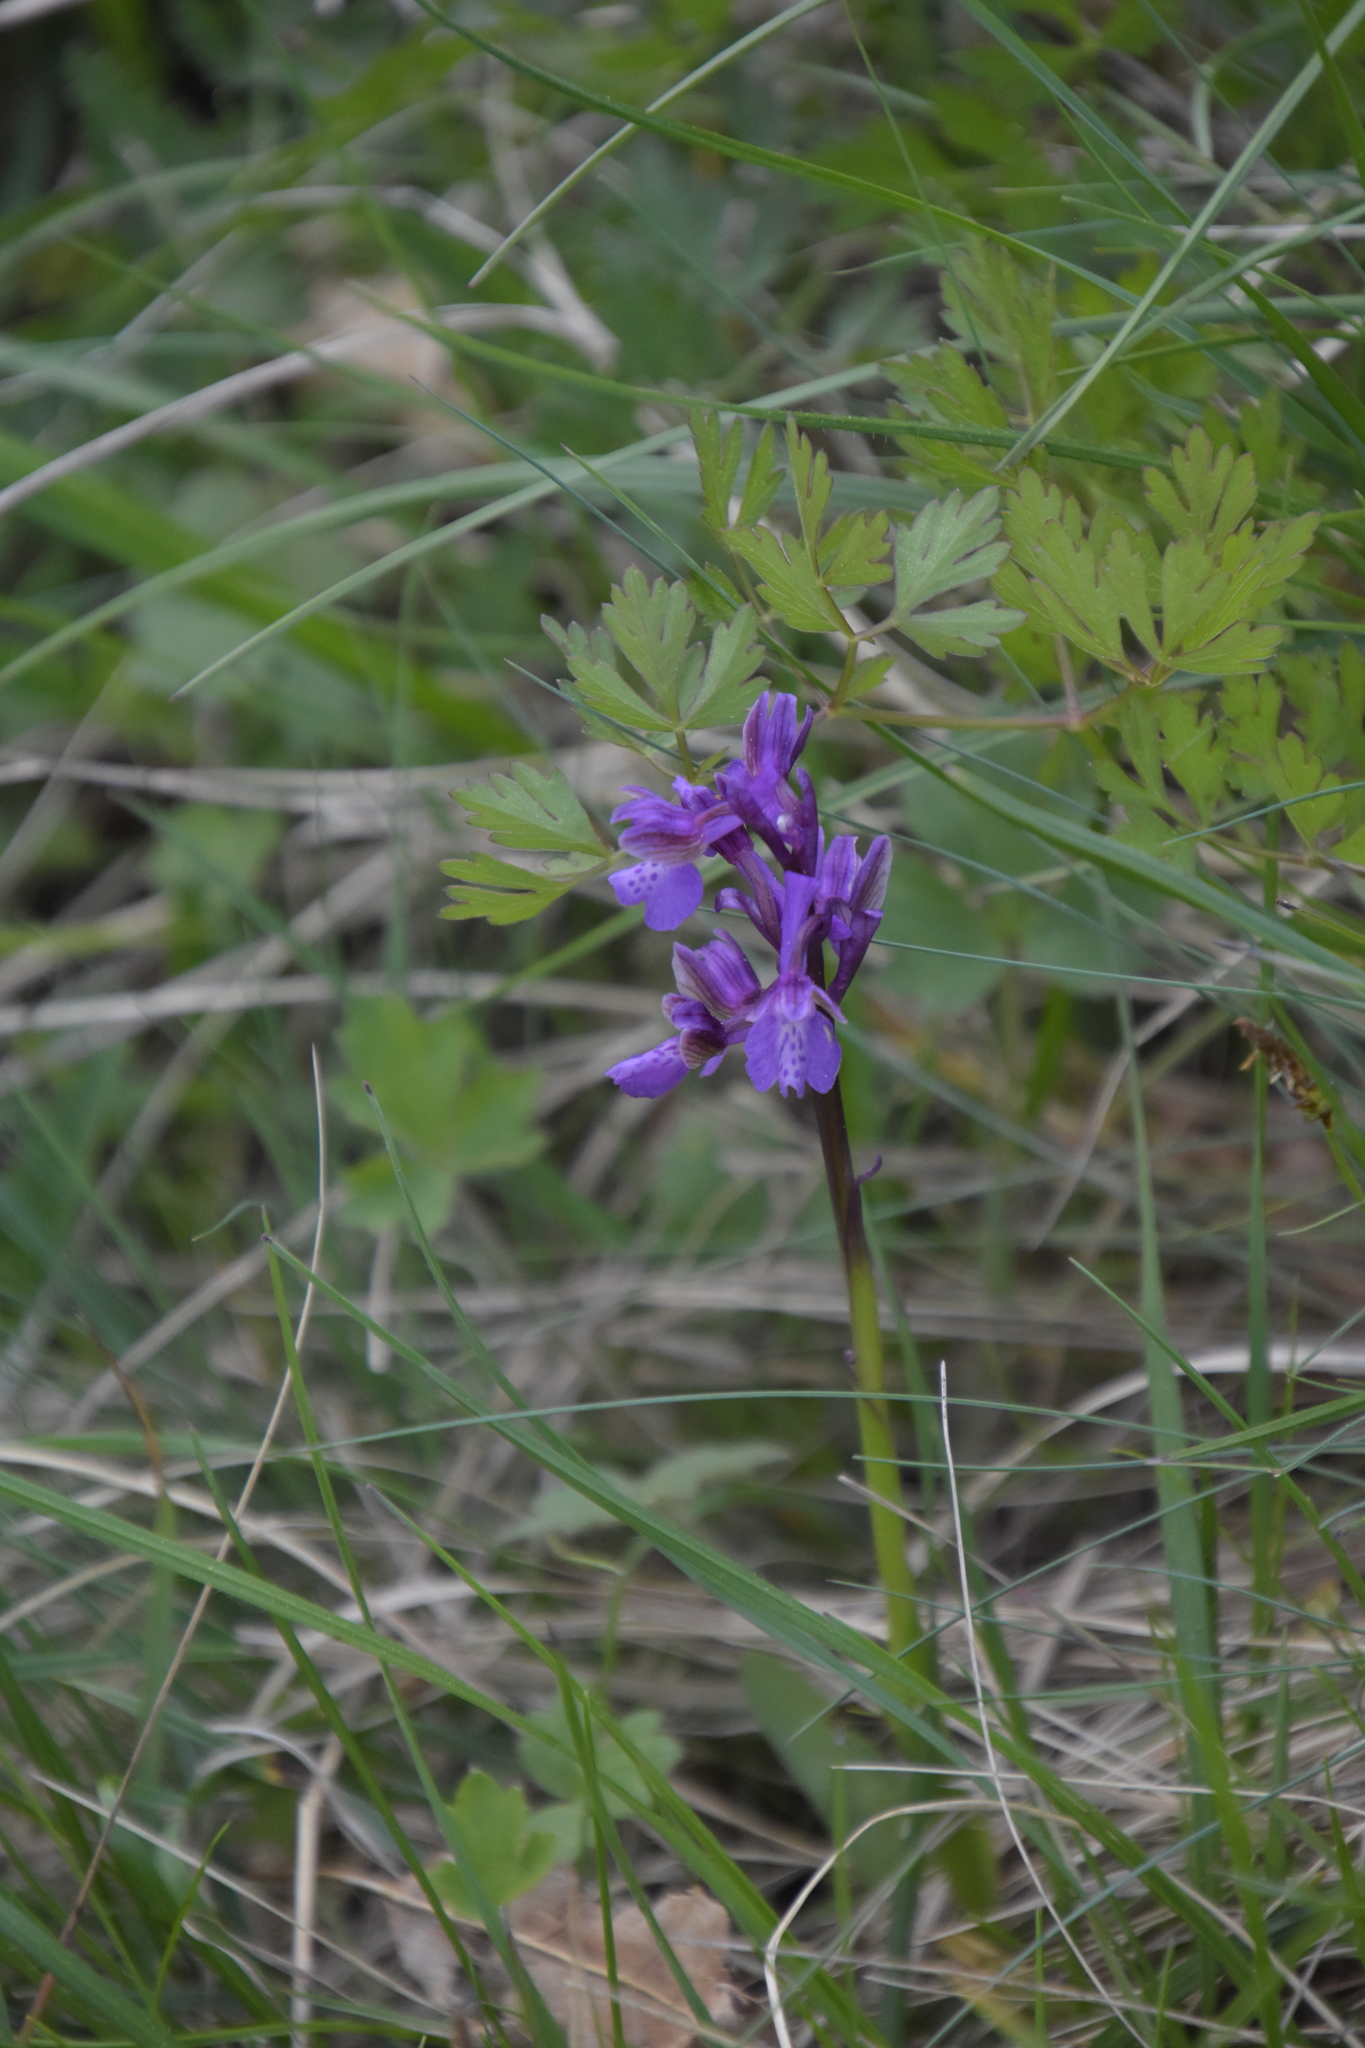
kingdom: Plantae
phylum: Tracheophyta
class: Liliopsida
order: Asparagales
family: Orchidaceae
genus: Anacamptis
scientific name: Anacamptis morio
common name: Green-winged orchid
